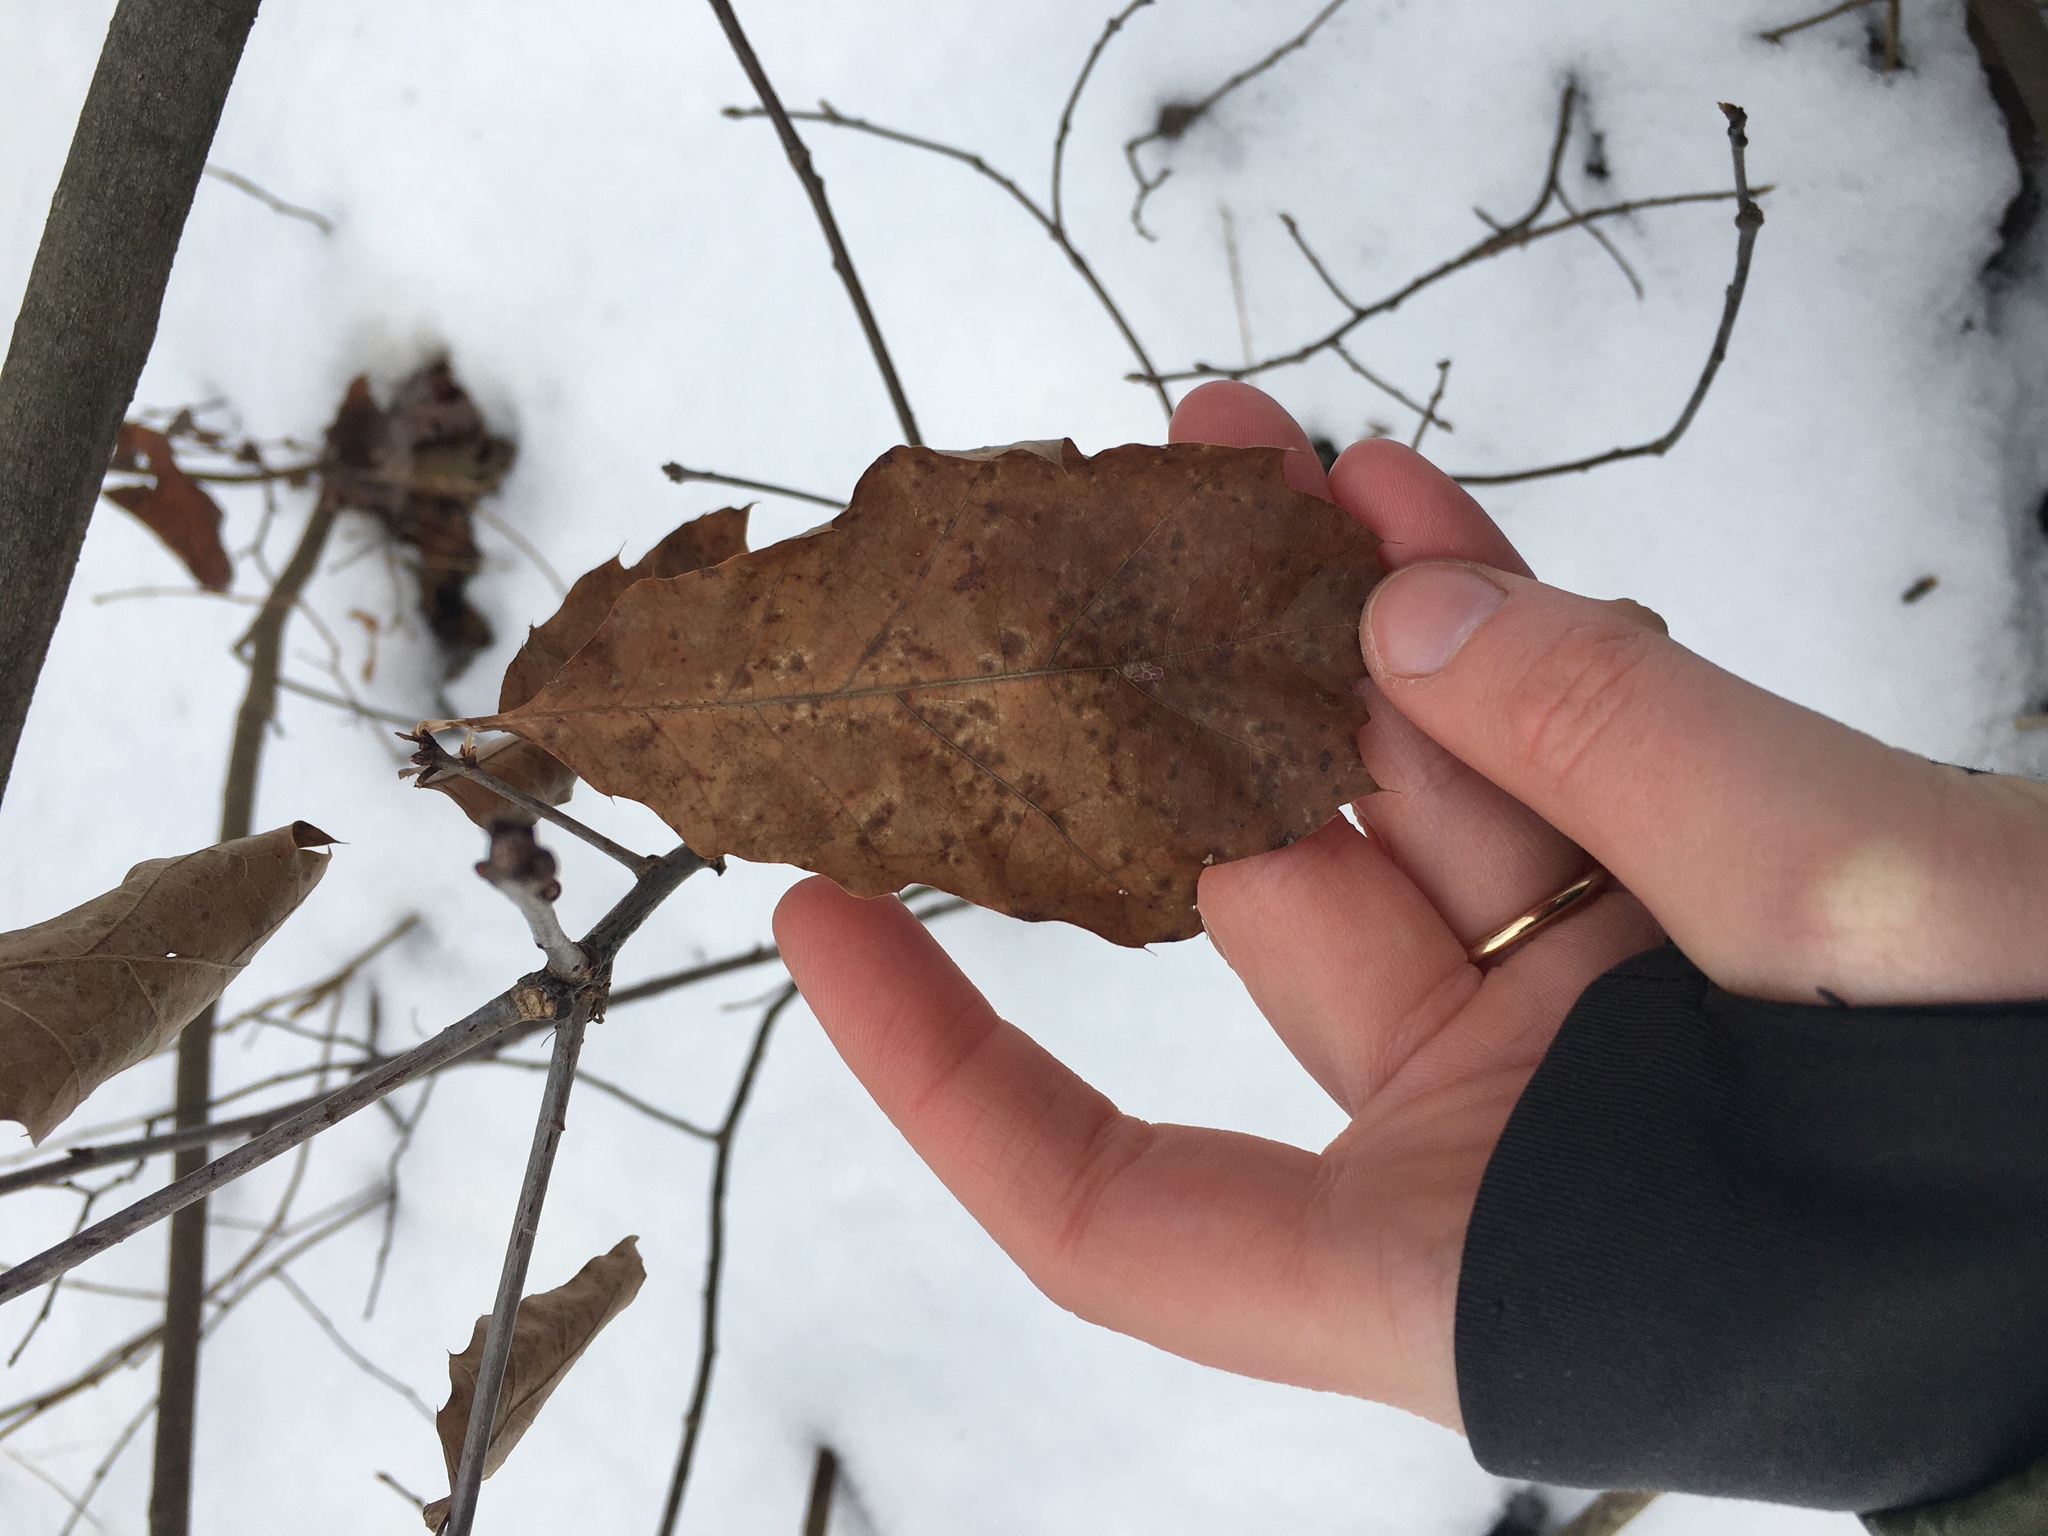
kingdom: Plantae
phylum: Tracheophyta
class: Magnoliopsida
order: Fagales
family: Fagaceae
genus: Quercus
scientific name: Quercus velutina
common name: Black oak
